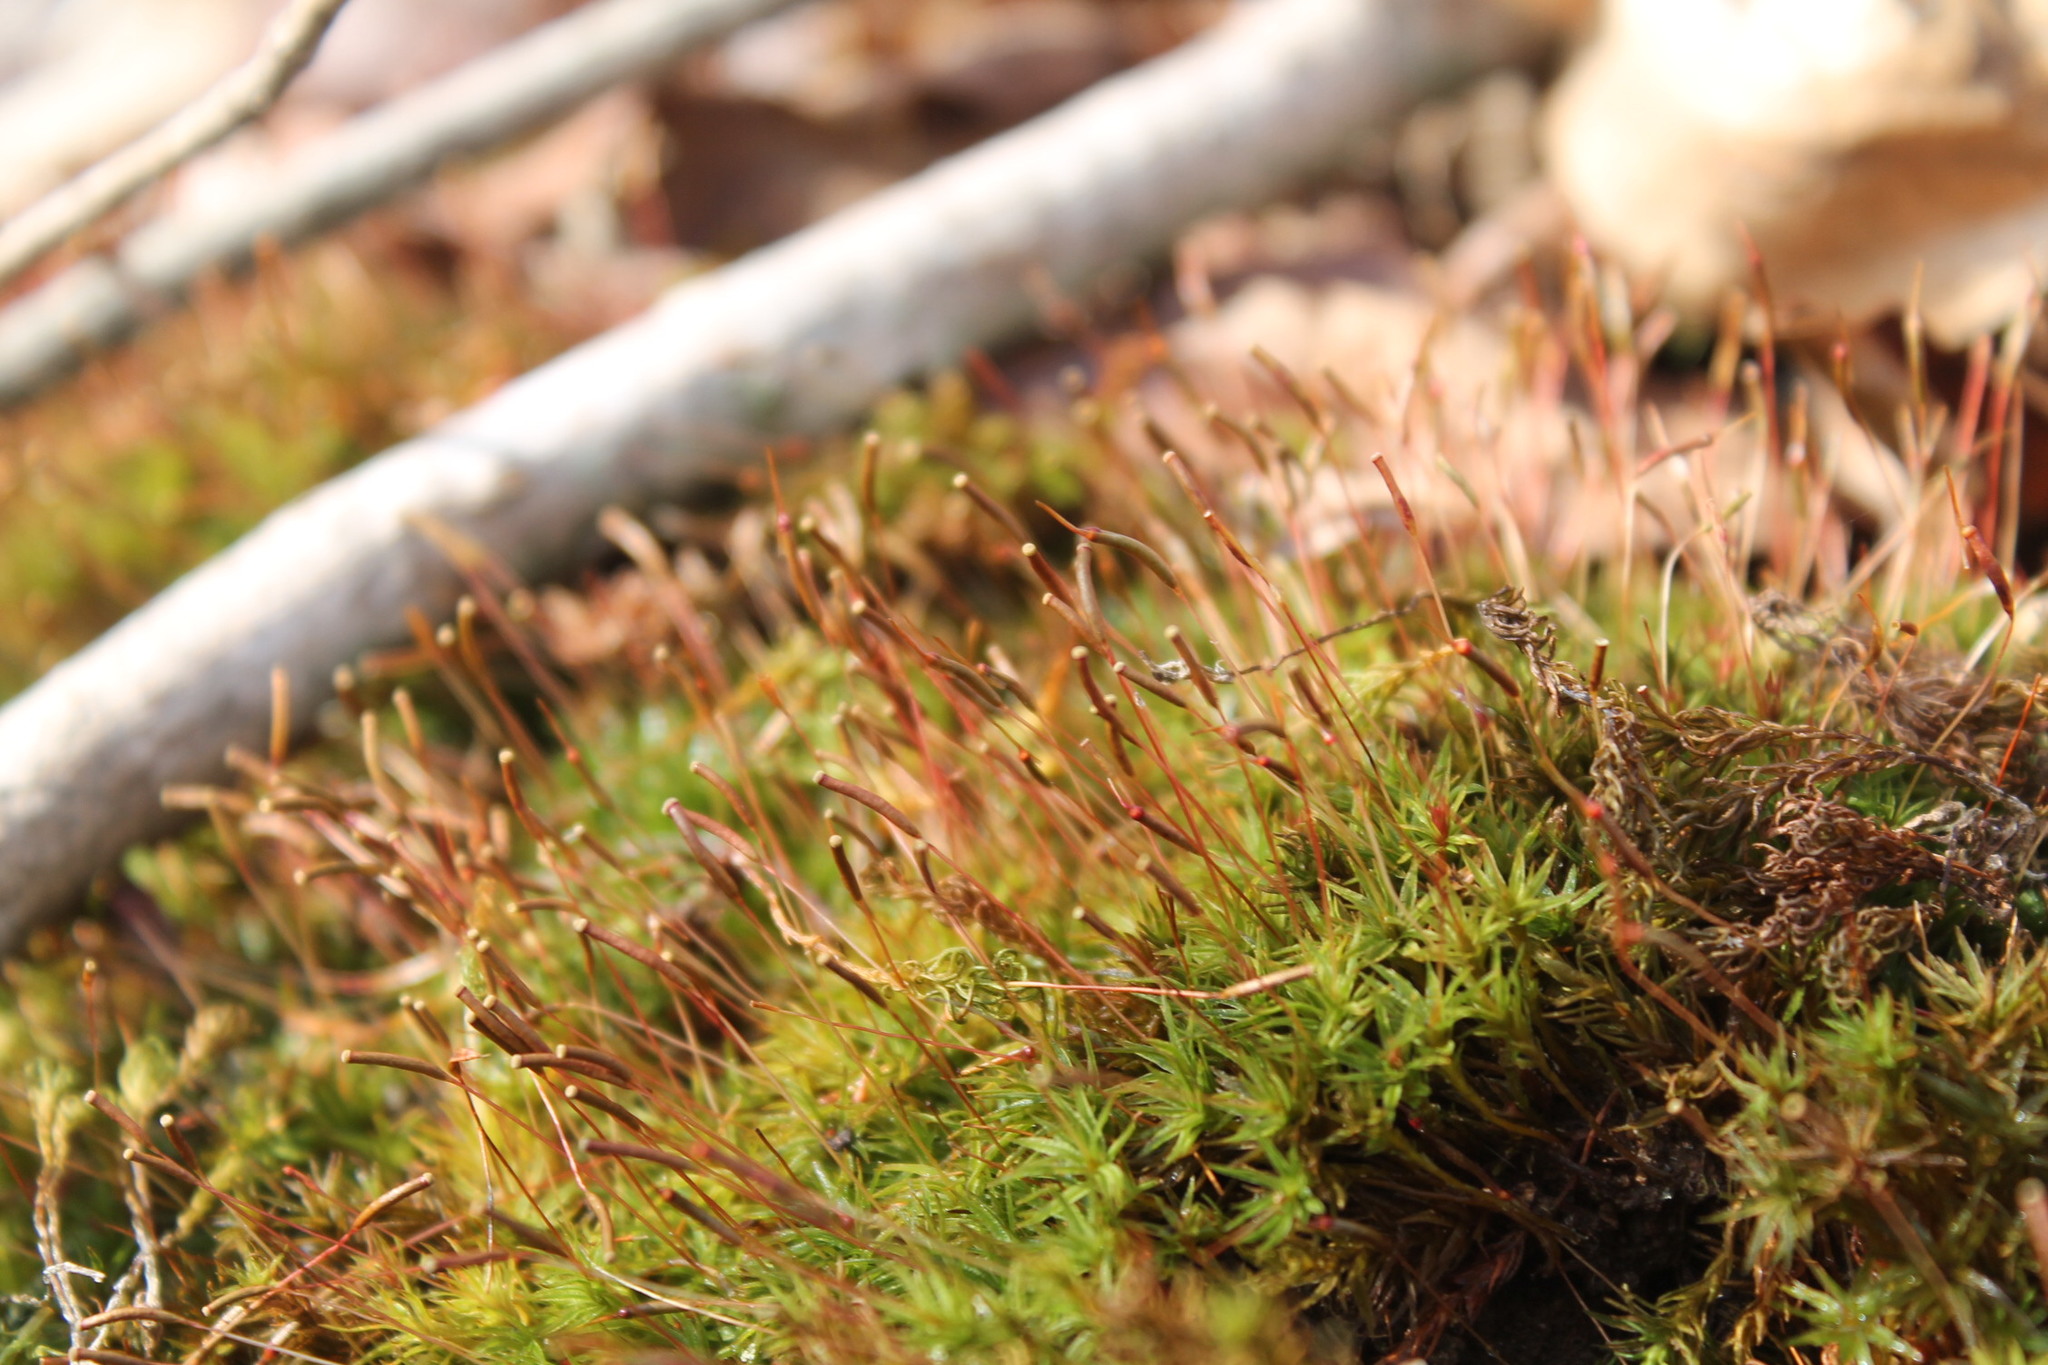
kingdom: Plantae
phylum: Bryophyta
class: Polytrichopsida
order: Polytrichales
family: Polytrichaceae
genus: Atrichum
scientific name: Atrichum angustatum
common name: Lesser smoothcap
